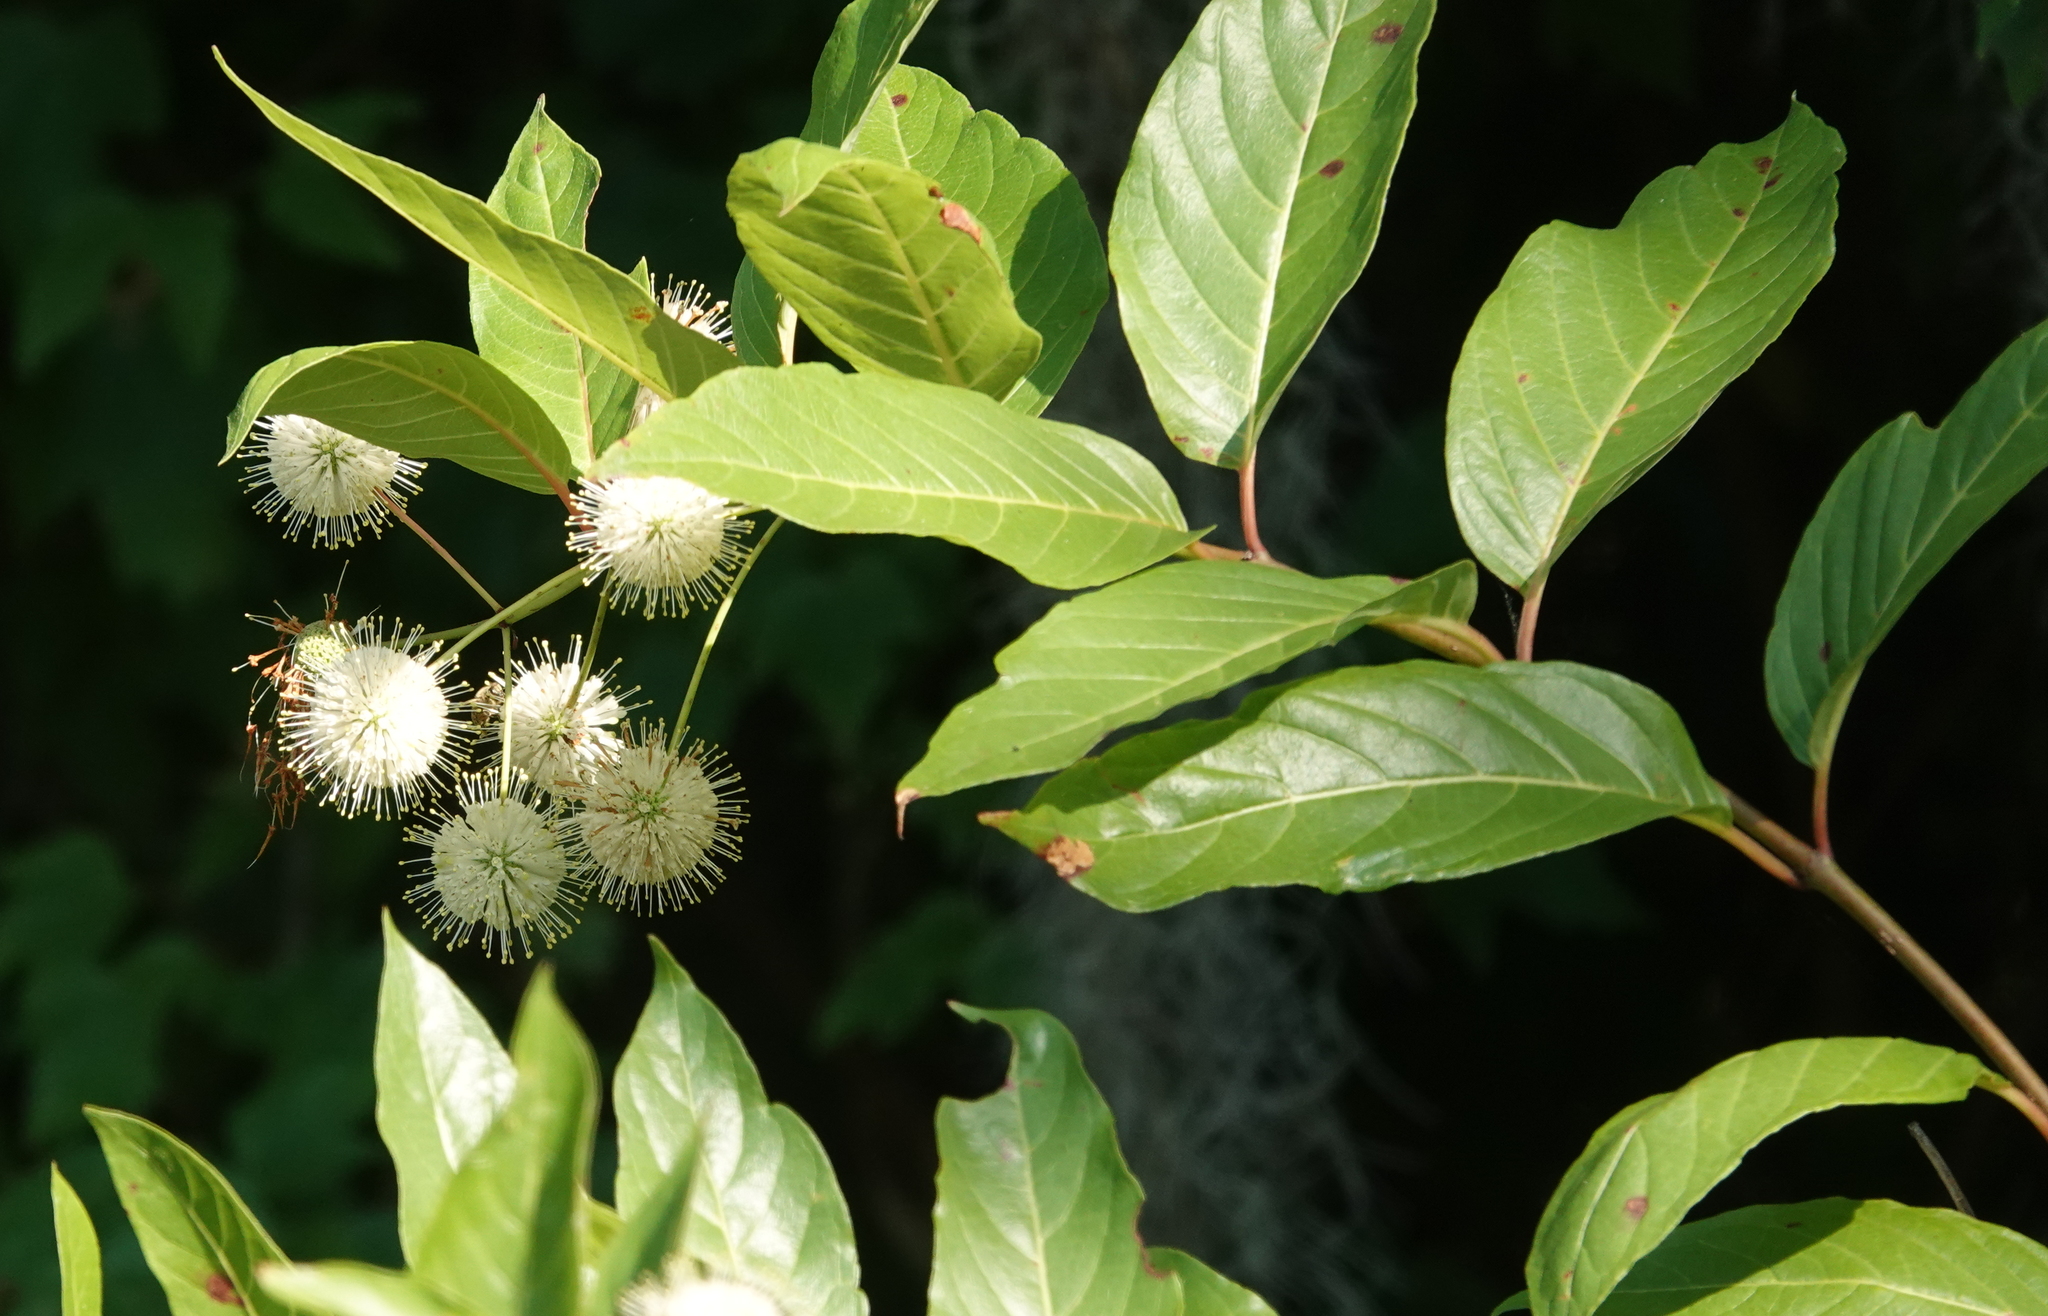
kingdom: Plantae
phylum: Tracheophyta
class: Magnoliopsida
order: Gentianales
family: Rubiaceae
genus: Cephalanthus
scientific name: Cephalanthus occidentalis
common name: Button-willow
